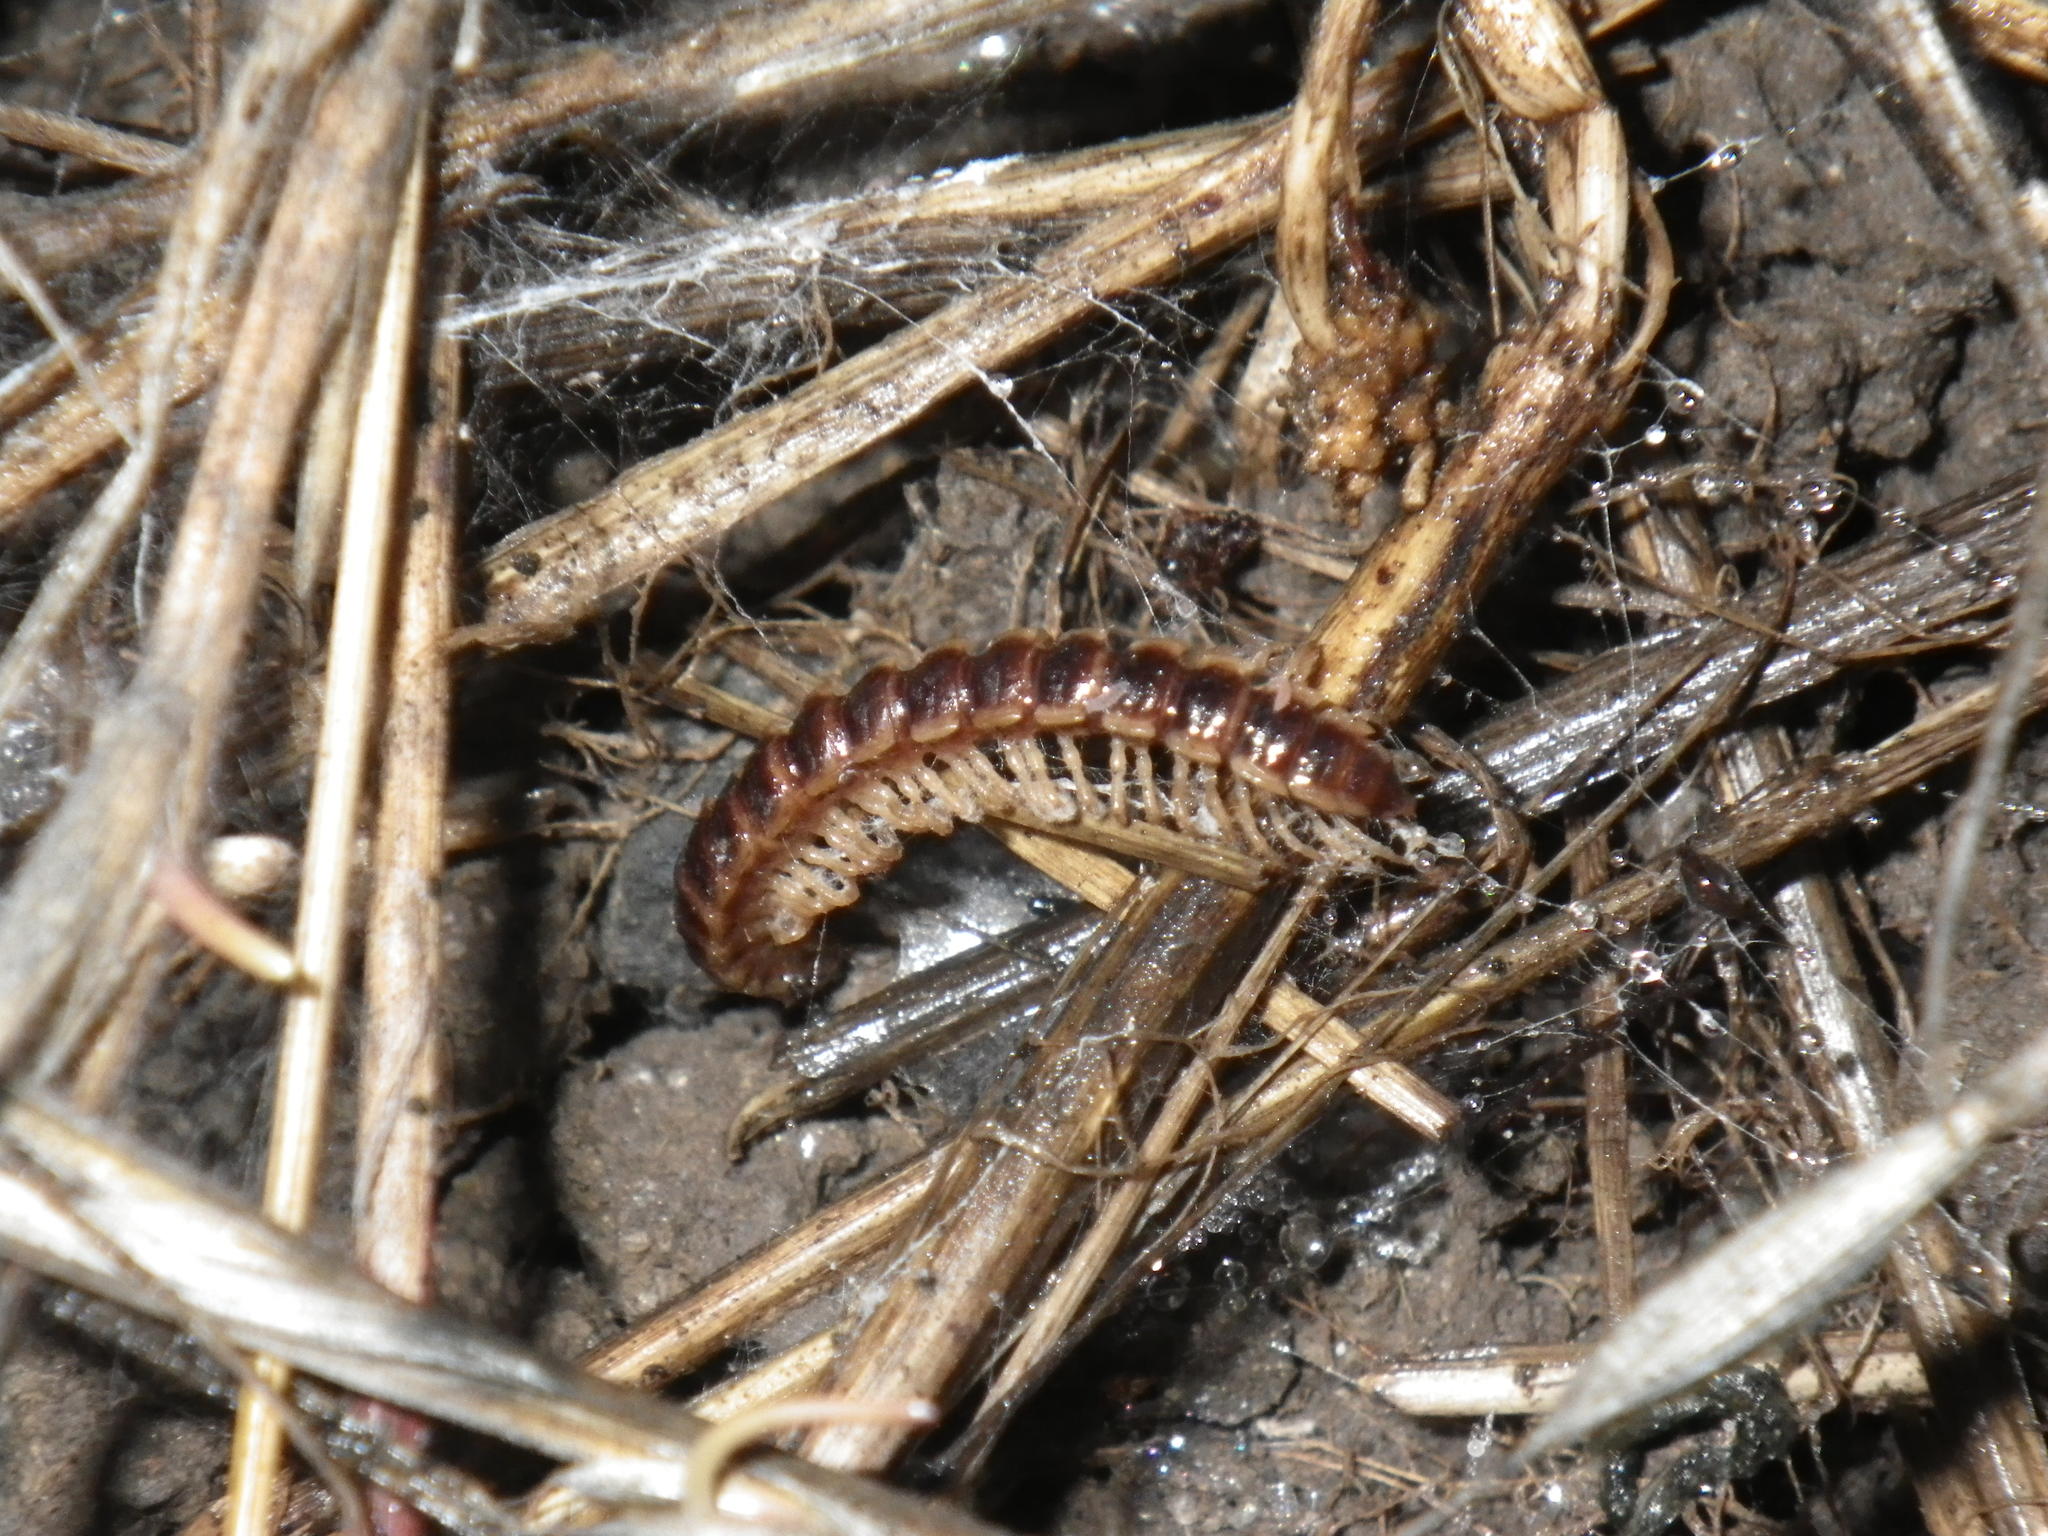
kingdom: Animalia
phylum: Arthropoda
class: Diplopoda
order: Polydesmida
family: Paradoxosomatidae
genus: Oxidus
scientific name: Oxidus gracilis
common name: Greenhouse millipede
